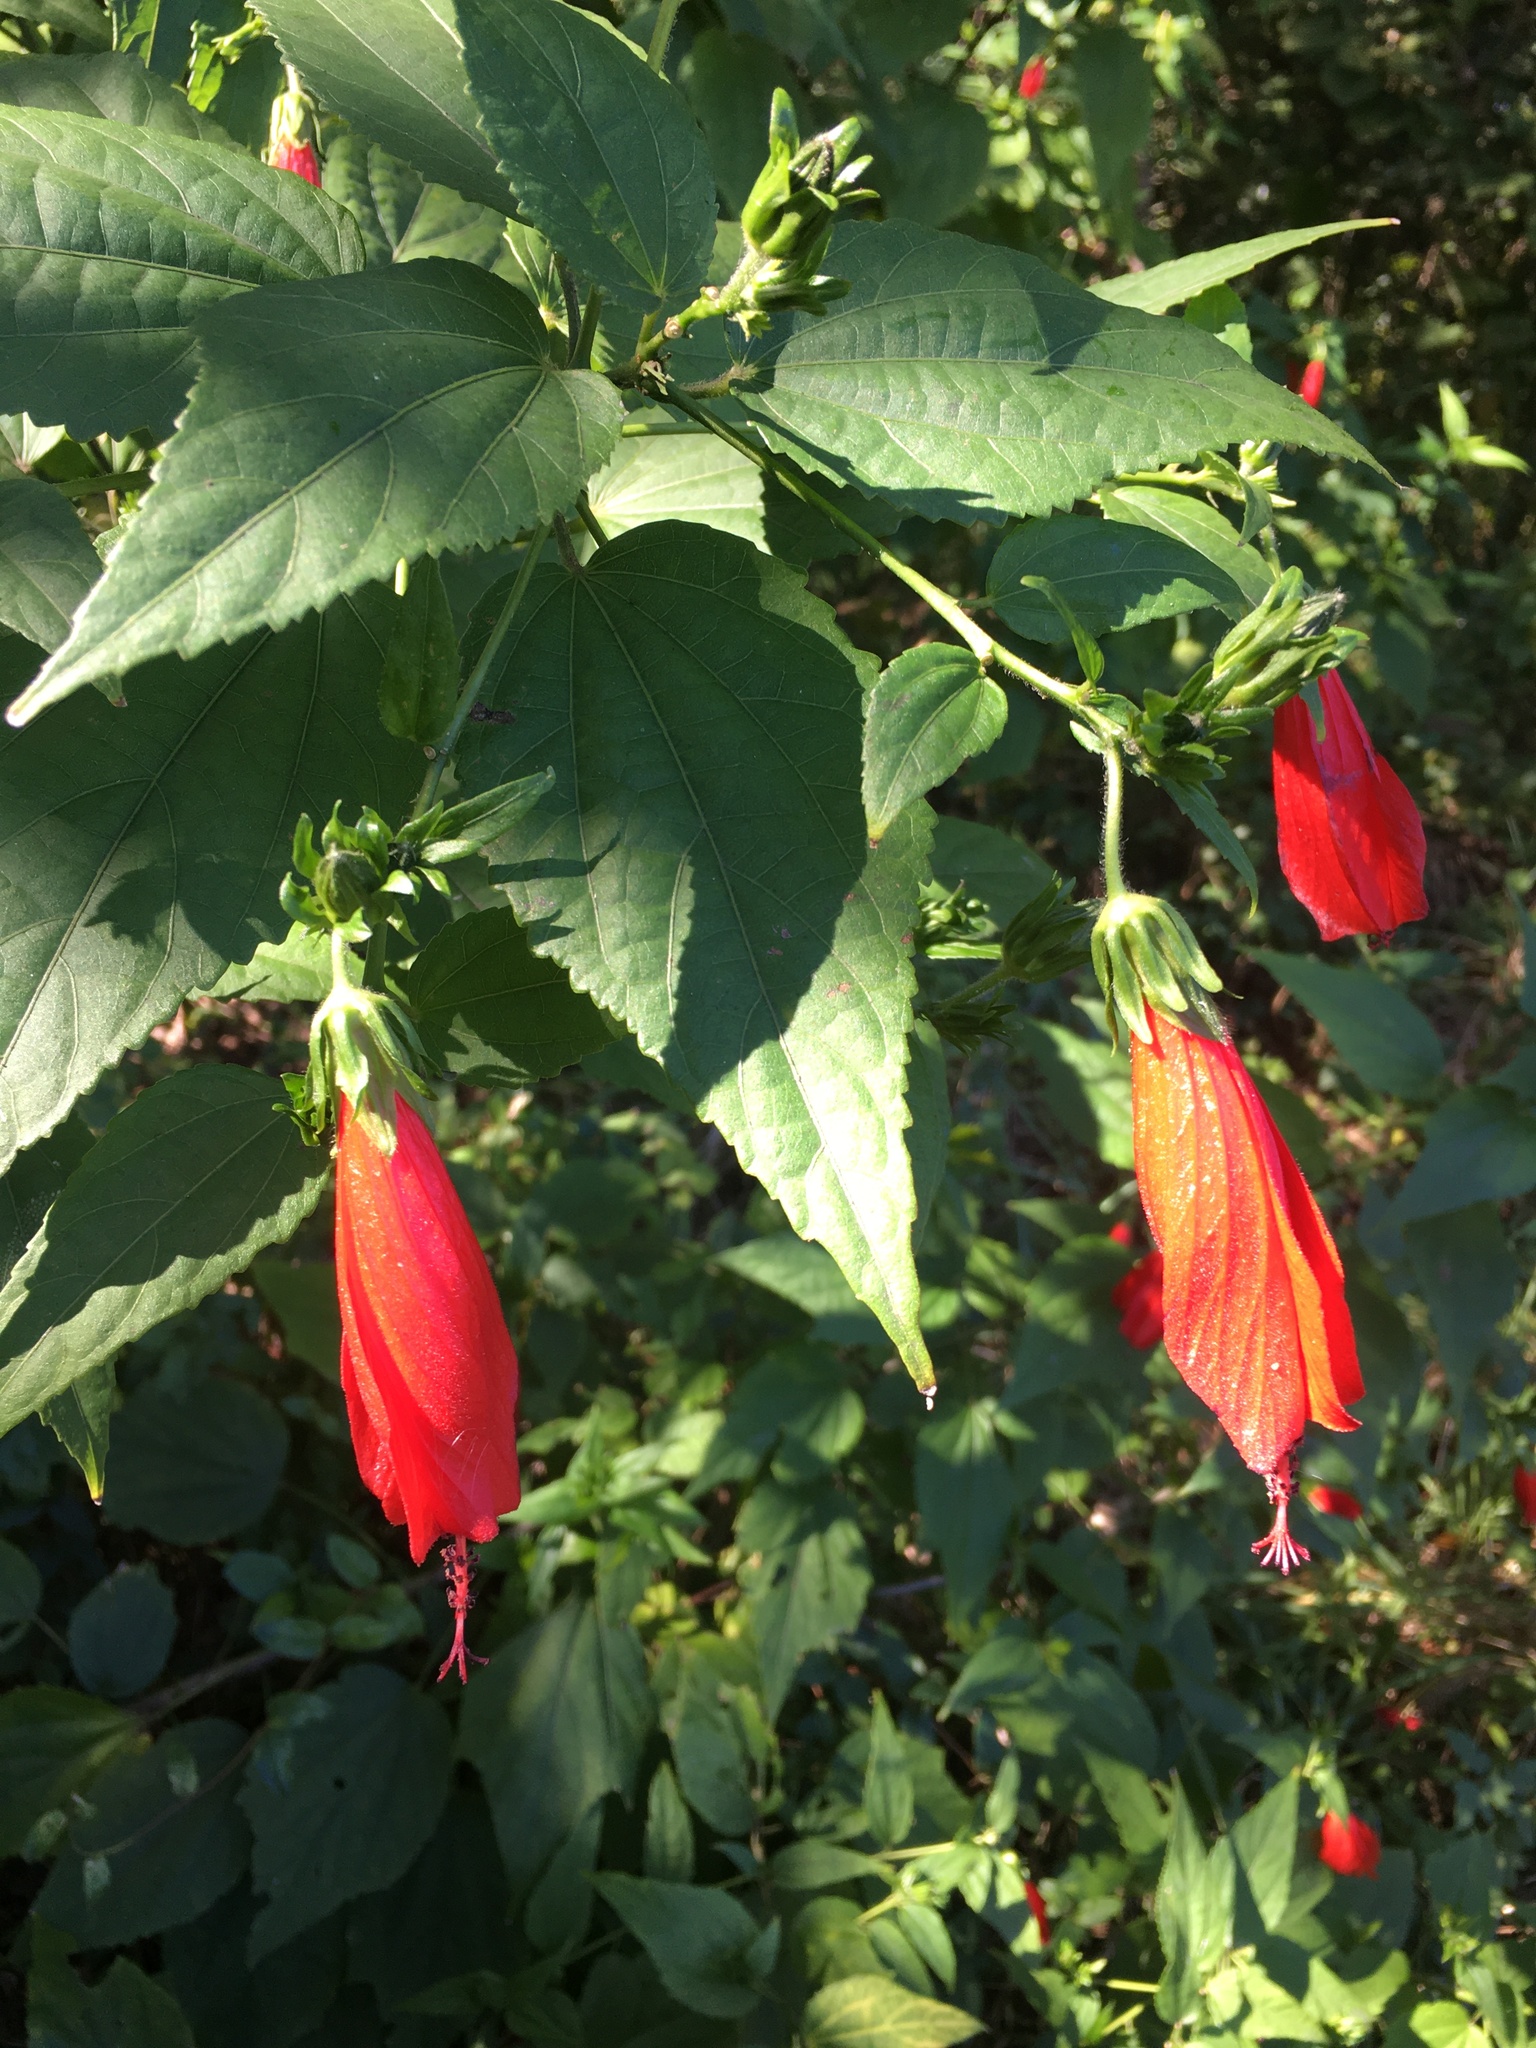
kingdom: Plantae
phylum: Tracheophyta
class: Magnoliopsida
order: Malvales
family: Malvaceae
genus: Malvaviscus
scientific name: Malvaviscus arboreus
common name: Wax mallow
